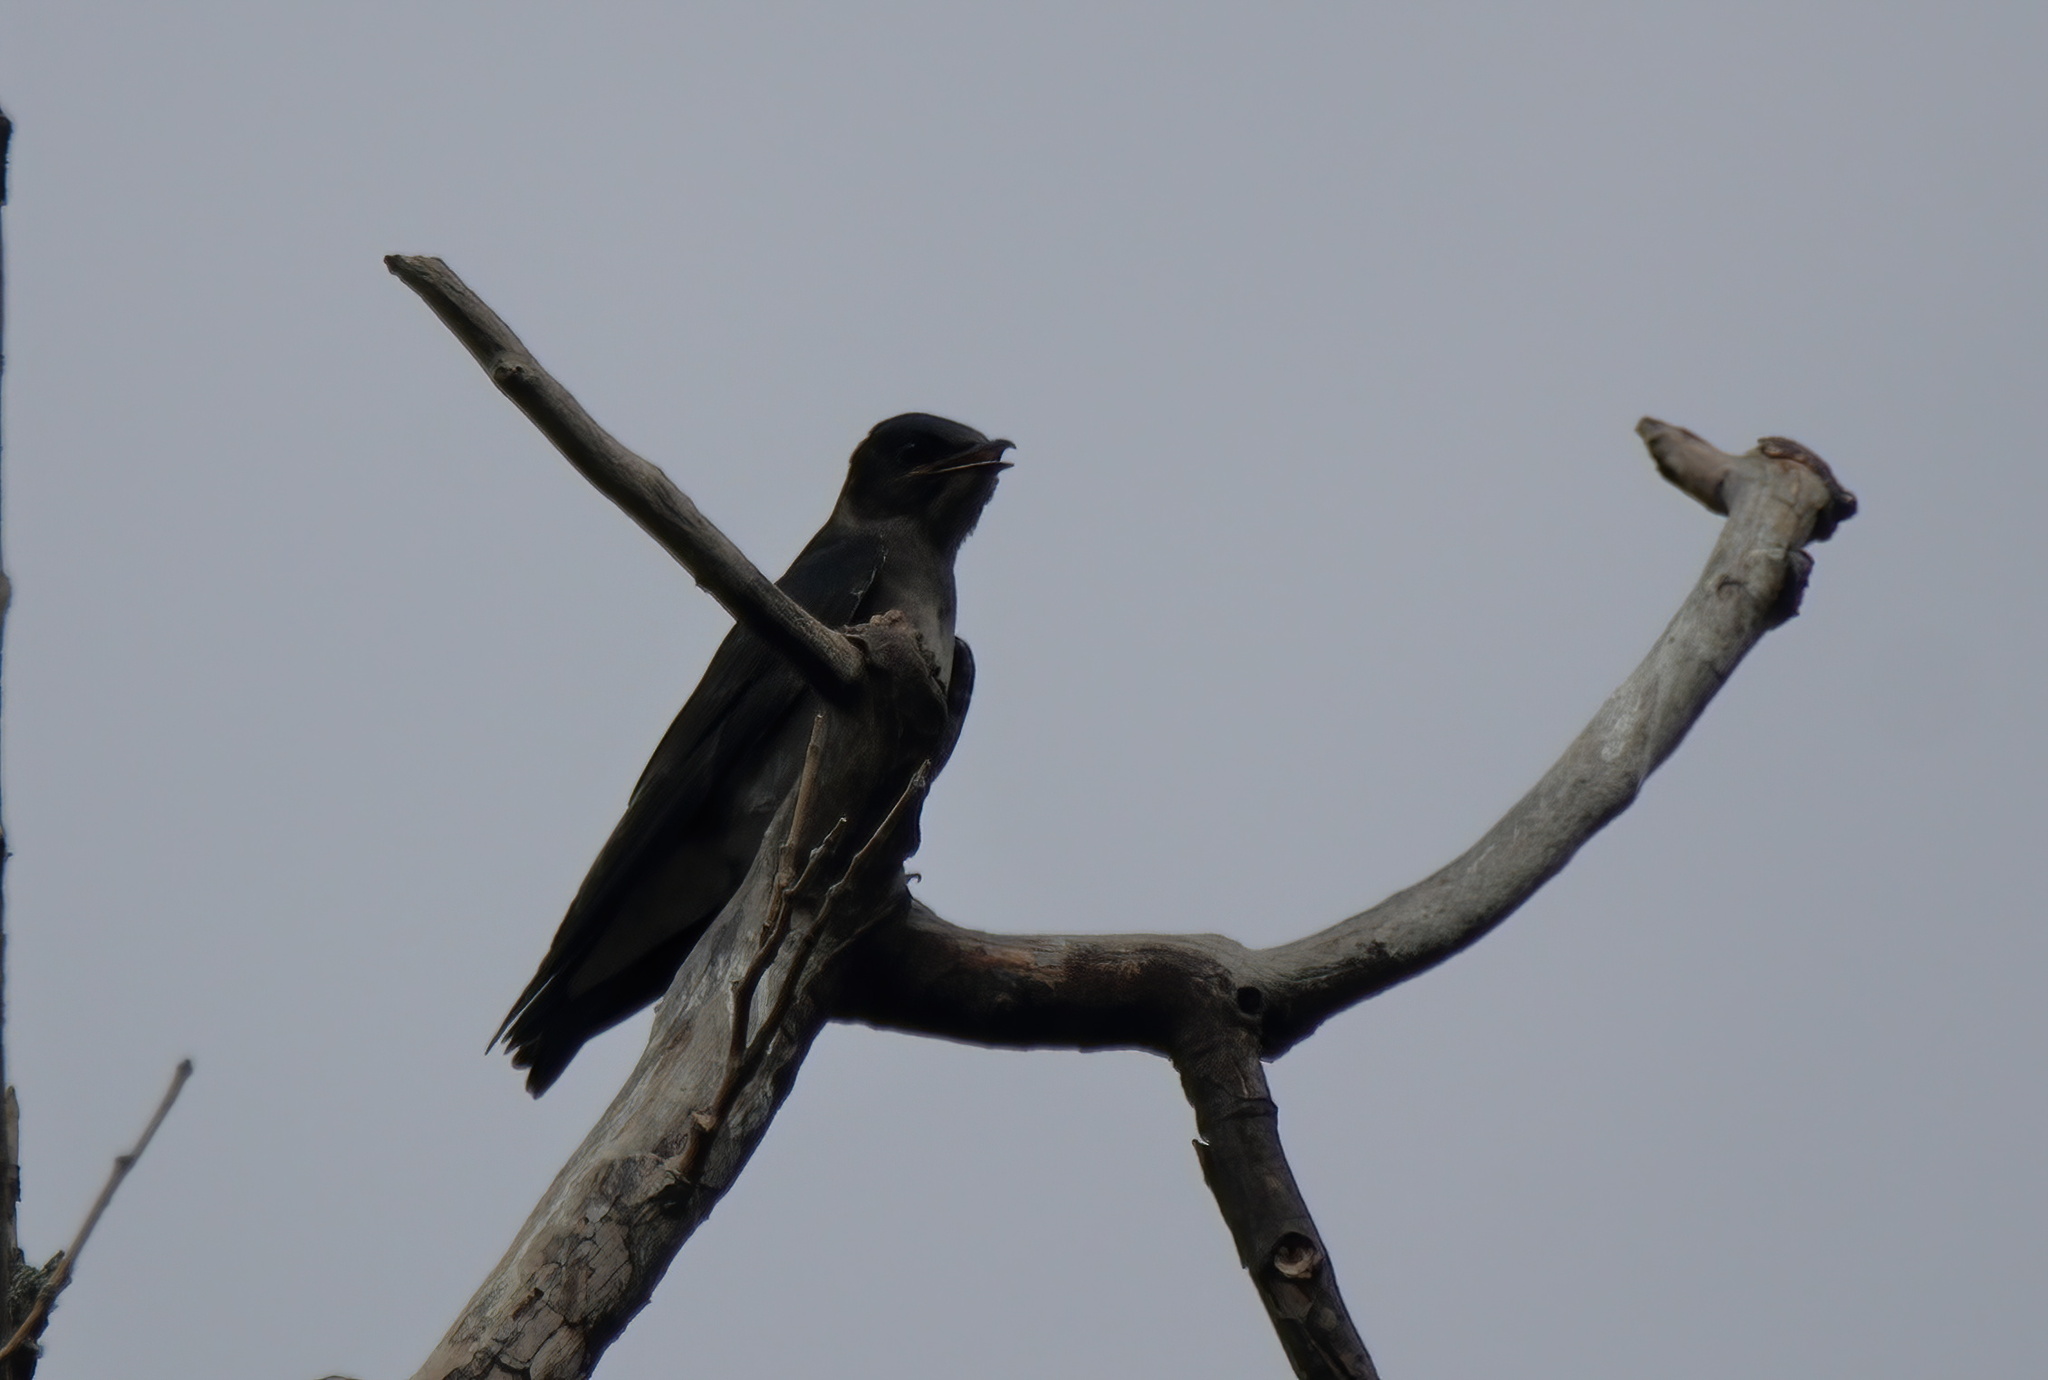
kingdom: Animalia
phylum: Chordata
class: Aves
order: Passeriformes
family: Hirundinidae
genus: Progne
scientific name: Progne subis
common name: Purple martin
